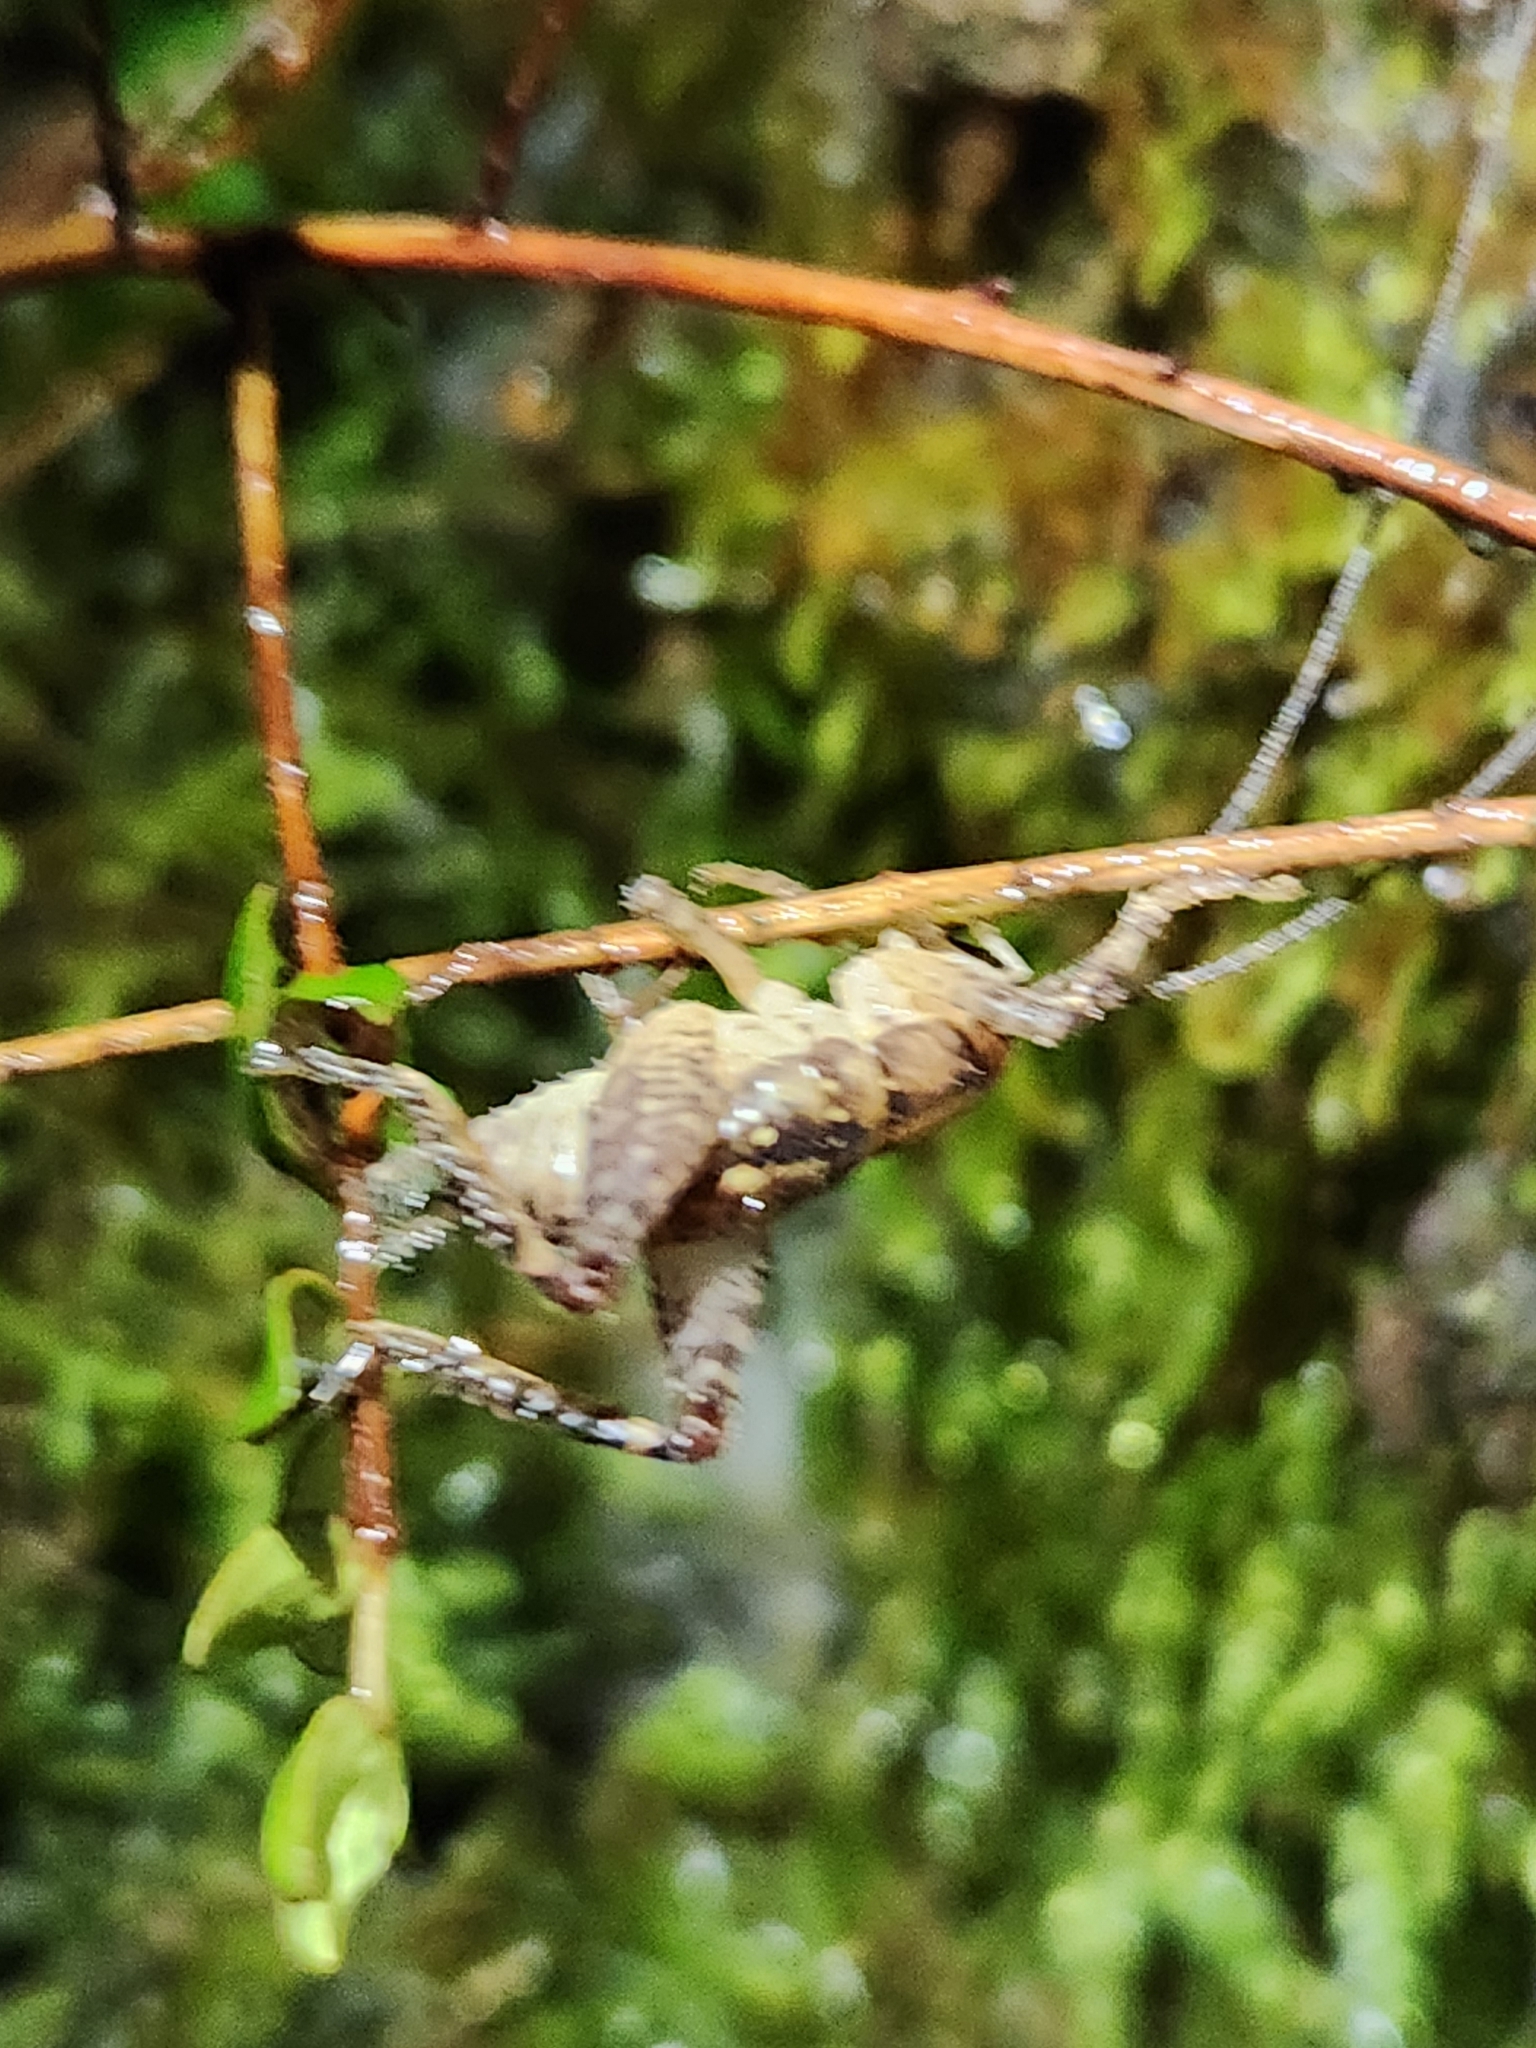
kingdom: Animalia
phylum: Arthropoda
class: Insecta
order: Orthoptera
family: Rhaphidophoridae
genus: Talitropsis
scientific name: Talitropsis sedilloti
